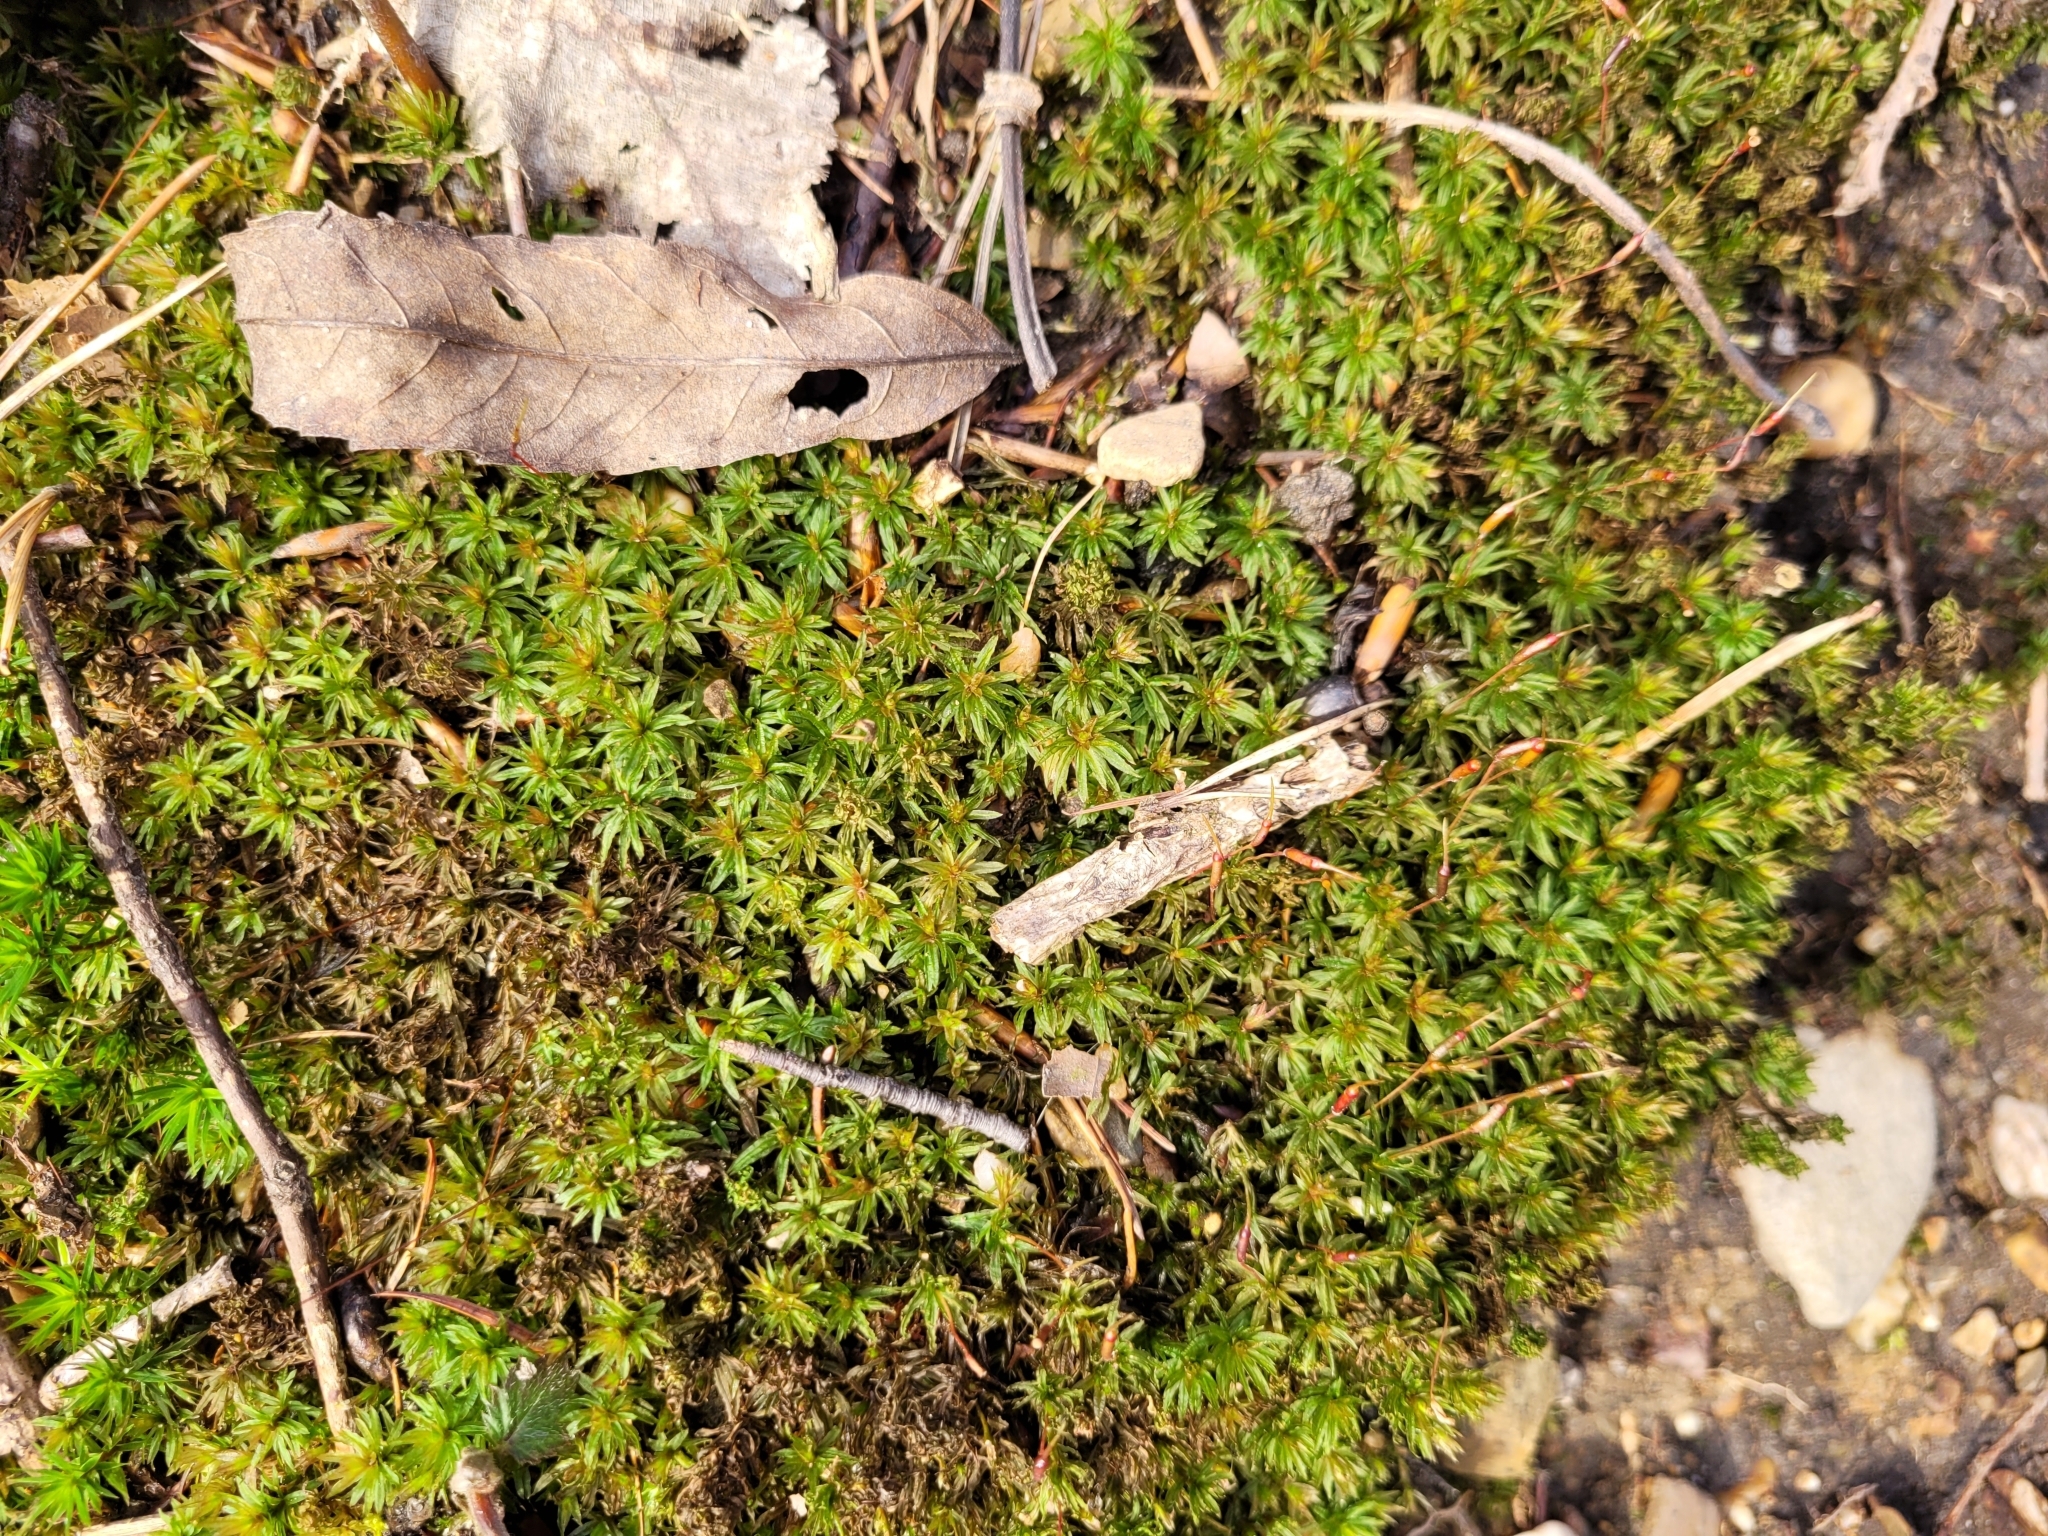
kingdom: Plantae
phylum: Bryophyta
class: Polytrichopsida
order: Polytrichales
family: Polytrichaceae
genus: Atrichum
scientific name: Atrichum undulatum
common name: Common smoothcap
